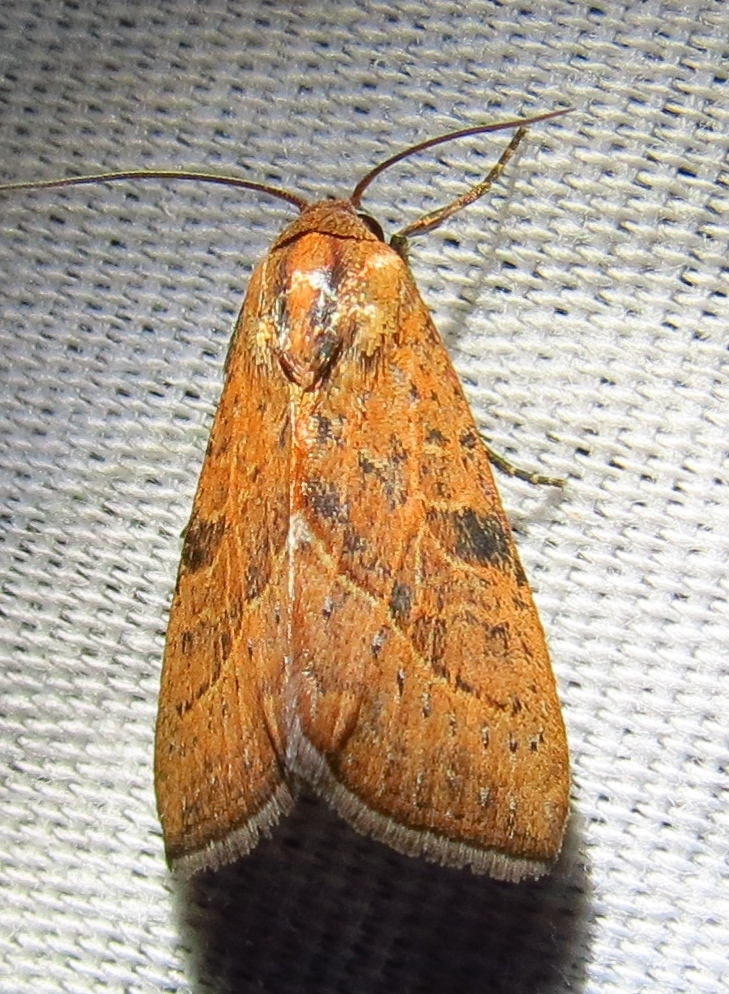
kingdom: Animalia
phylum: Arthropoda
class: Insecta
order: Lepidoptera
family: Noctuidae
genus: Galgula
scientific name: Galgula partita
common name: Wedgeling
